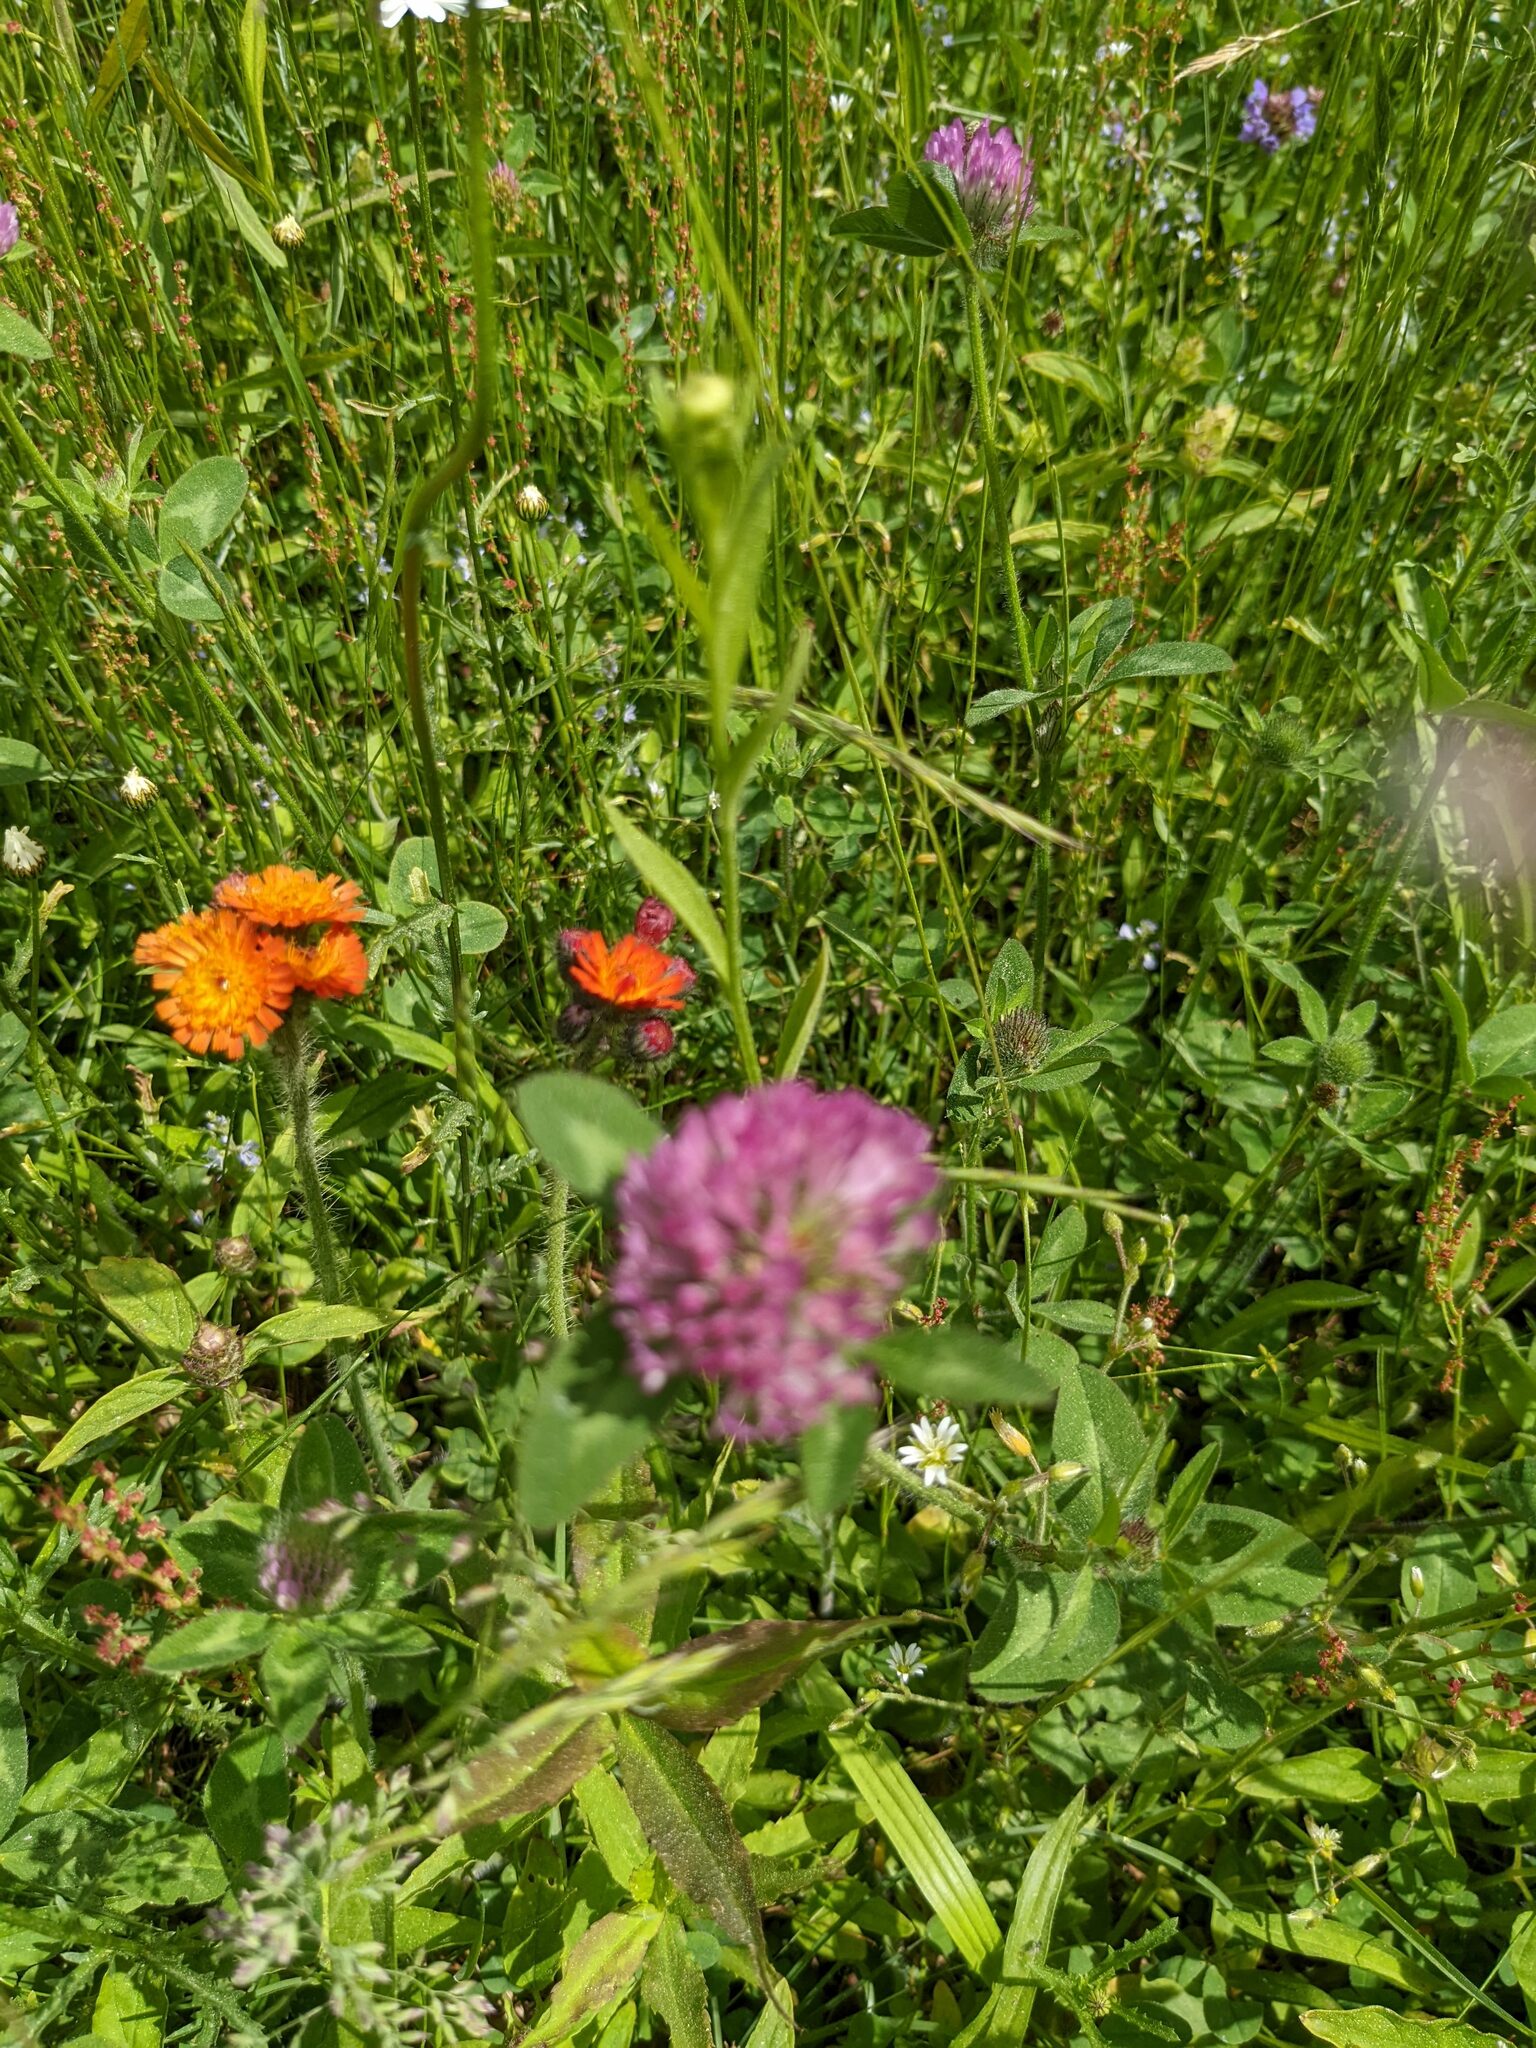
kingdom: Plantae
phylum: Tracheophyta
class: Magnoliopsida
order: Fabales
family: Fabaceae
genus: Trifolium
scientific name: Trifolium pratense
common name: Red clover
